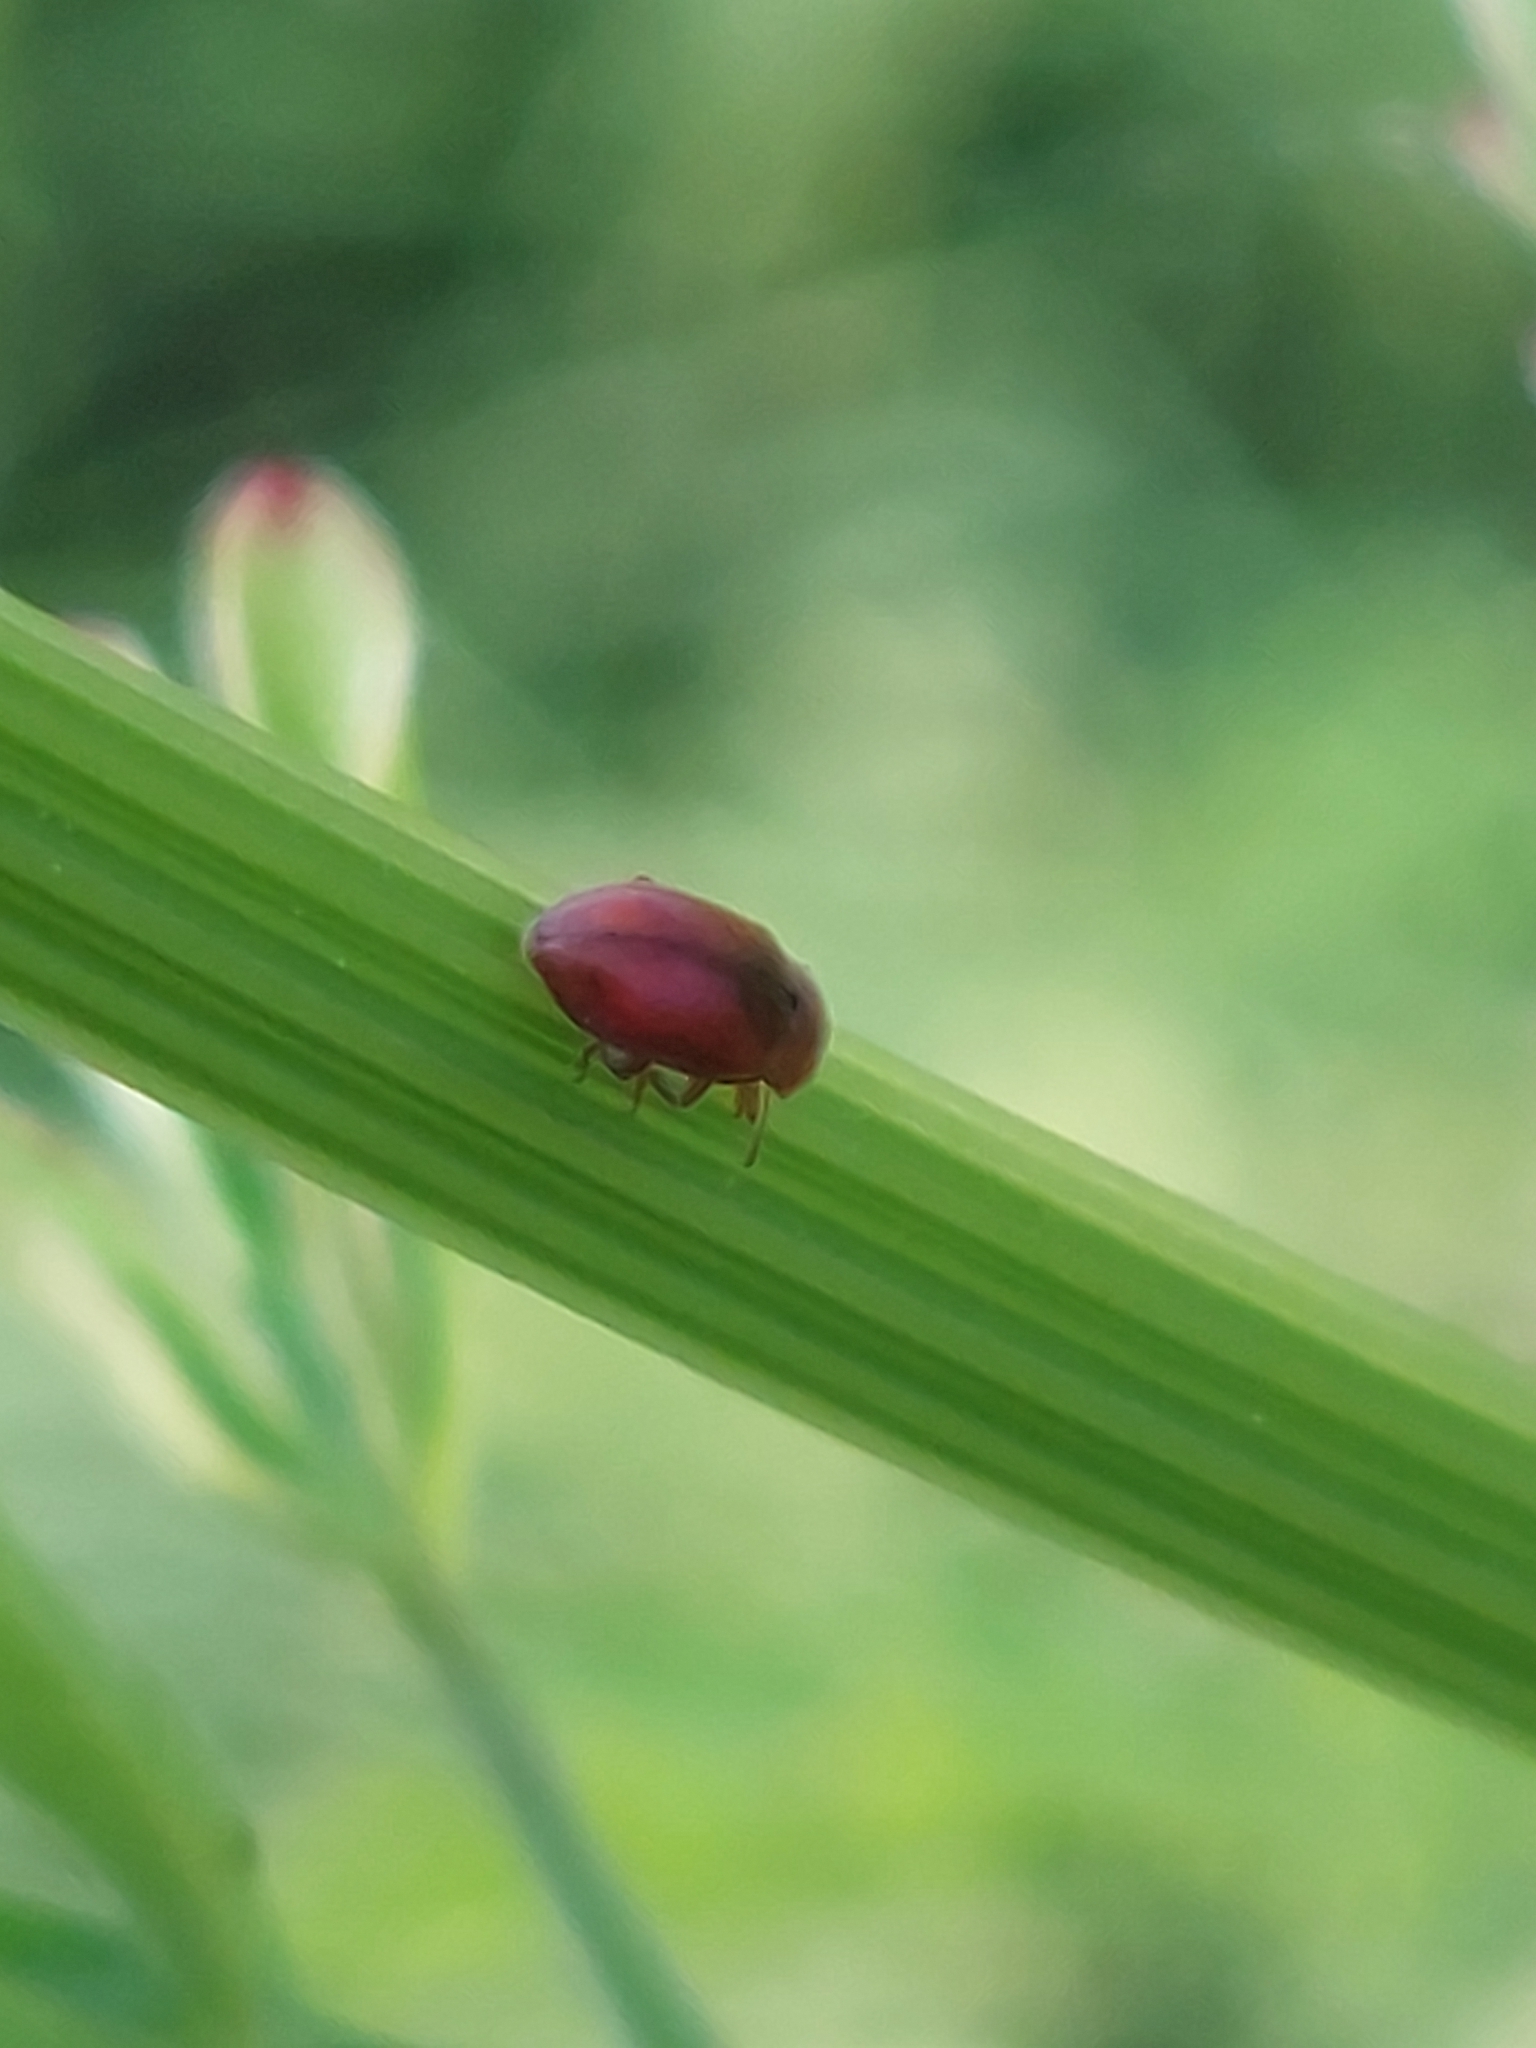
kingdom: Animalia
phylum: Arthropoda
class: Insecta
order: Coleoptera
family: Coccinellidae
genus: Coccidula
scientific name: Coccidula rufa
